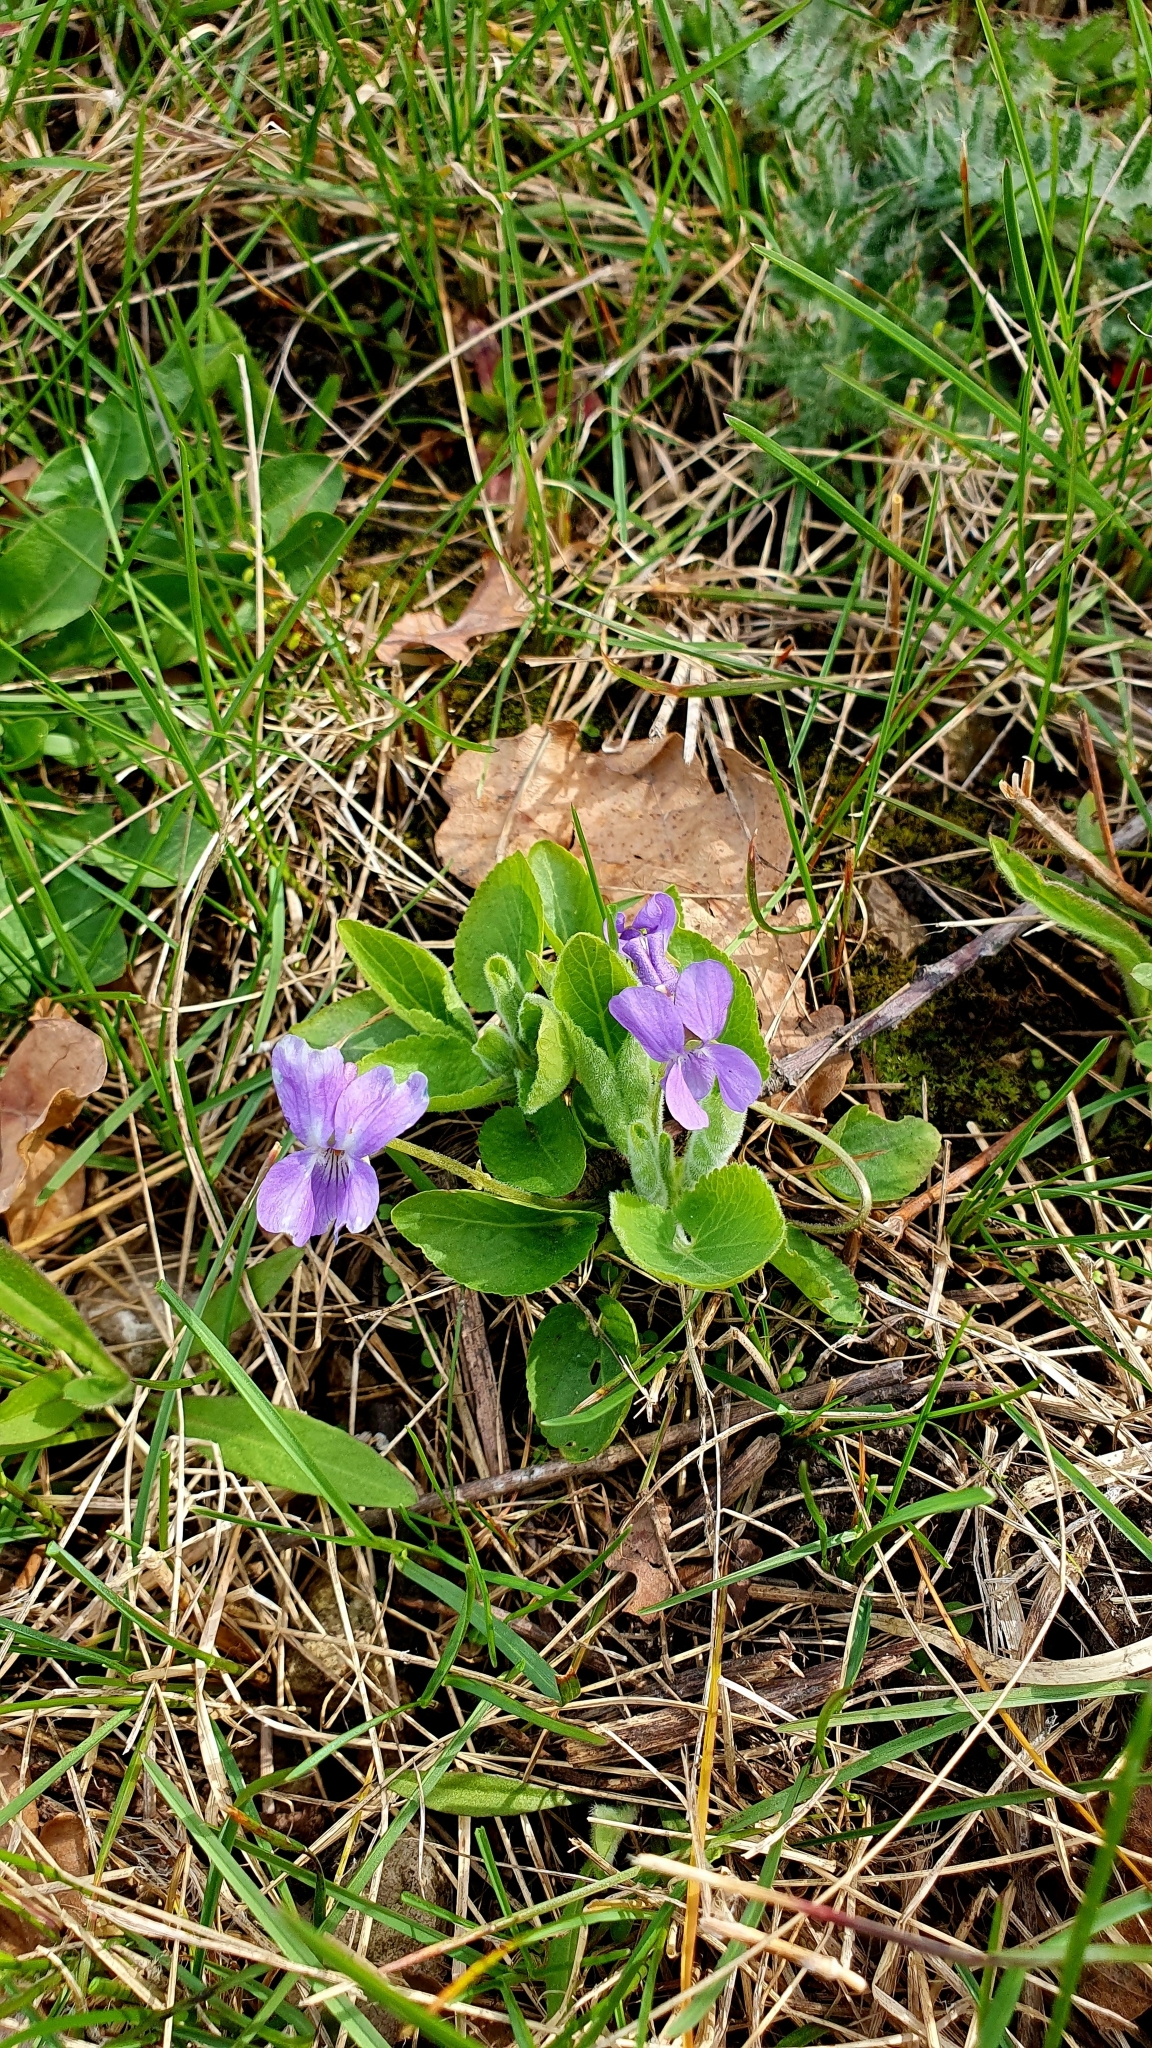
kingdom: Plantae
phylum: Tracheophyta
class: Magnoliopsida
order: Malpighiales
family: Violaceae
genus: Viola
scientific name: Viola hirta
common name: Hairy violet
